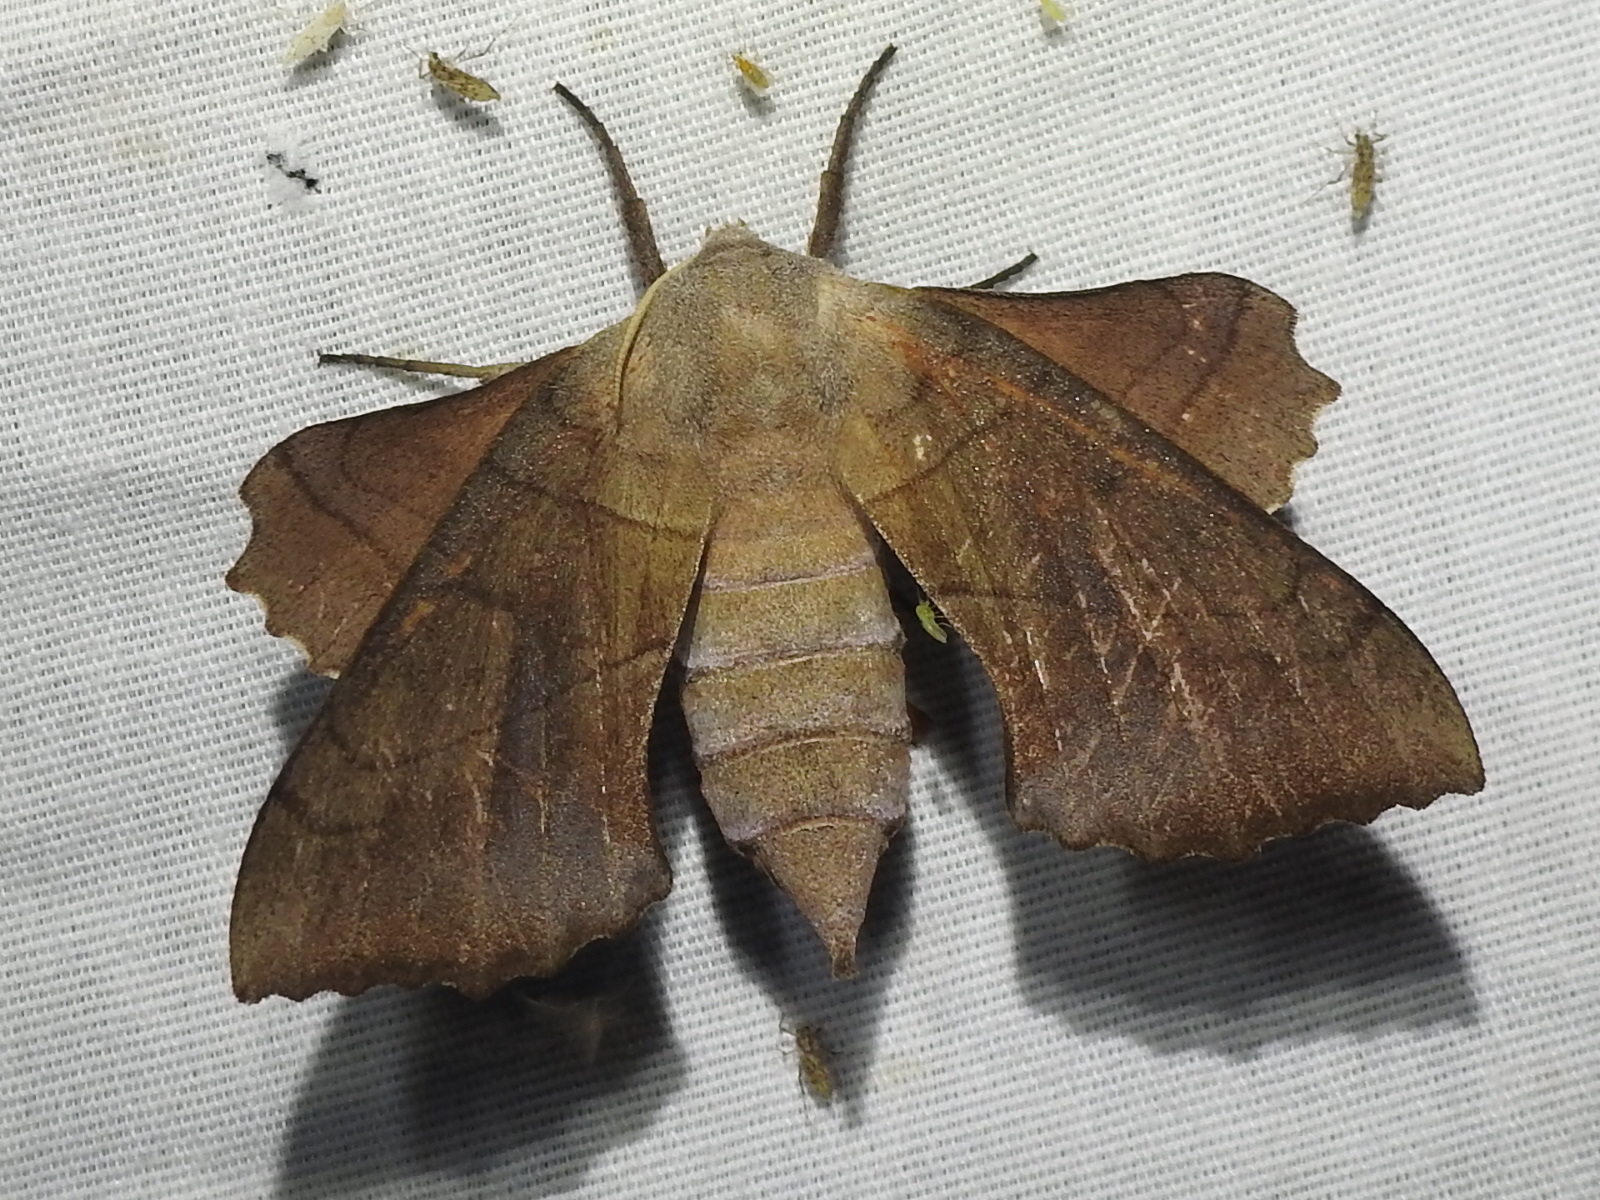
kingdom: Animalia
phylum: Arthropoda
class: Insecta
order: Lepidoptera
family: Sphingidae
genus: Amorpha
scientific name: Amorpha juglandis
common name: Walnut sphinx
